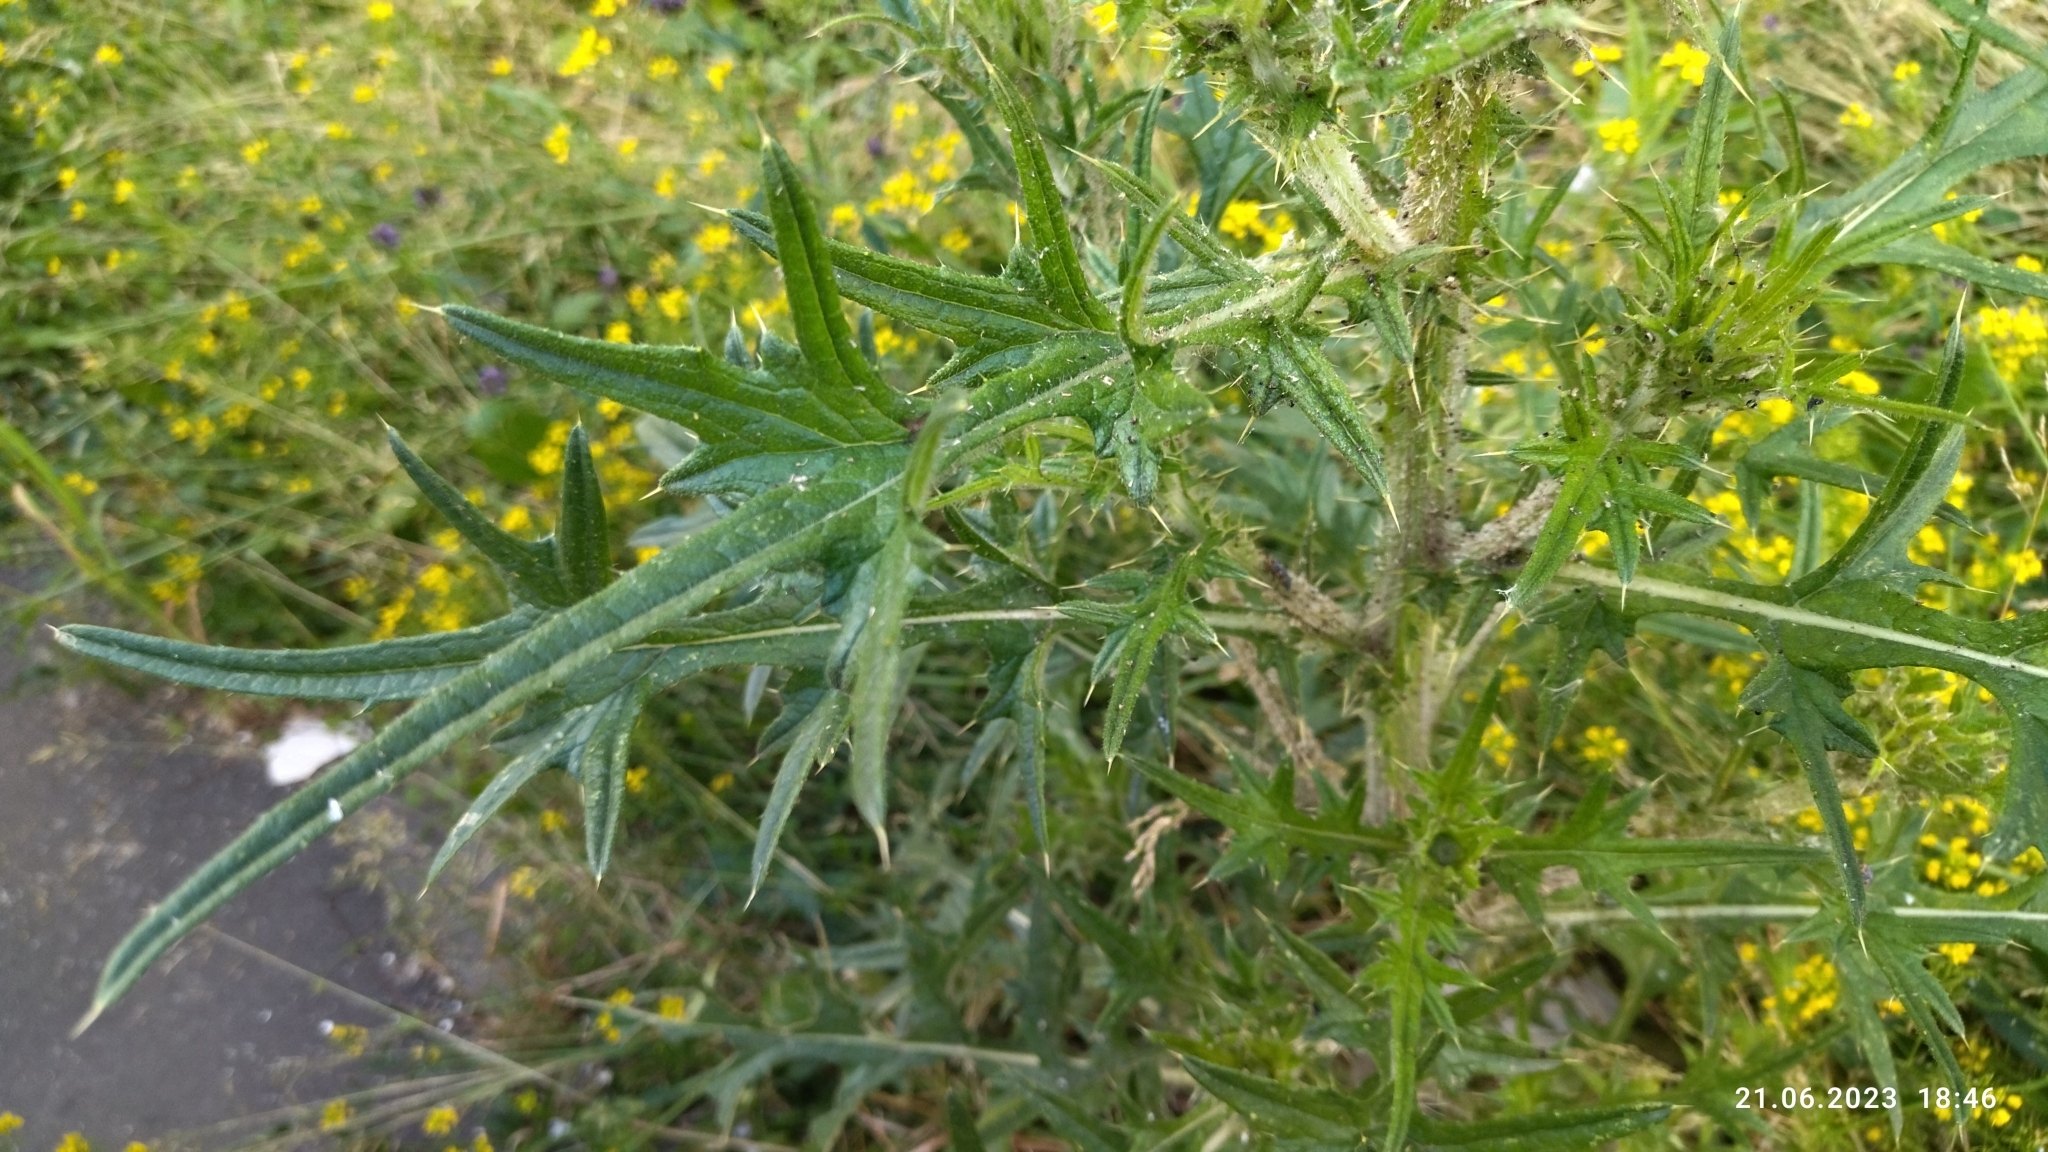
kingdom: Plantae
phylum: Tracheophyta
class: Magnoliopsida
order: Asterales
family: Asteraceae
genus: Cirsium
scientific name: Cirsium vulgare
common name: Bull thistle
